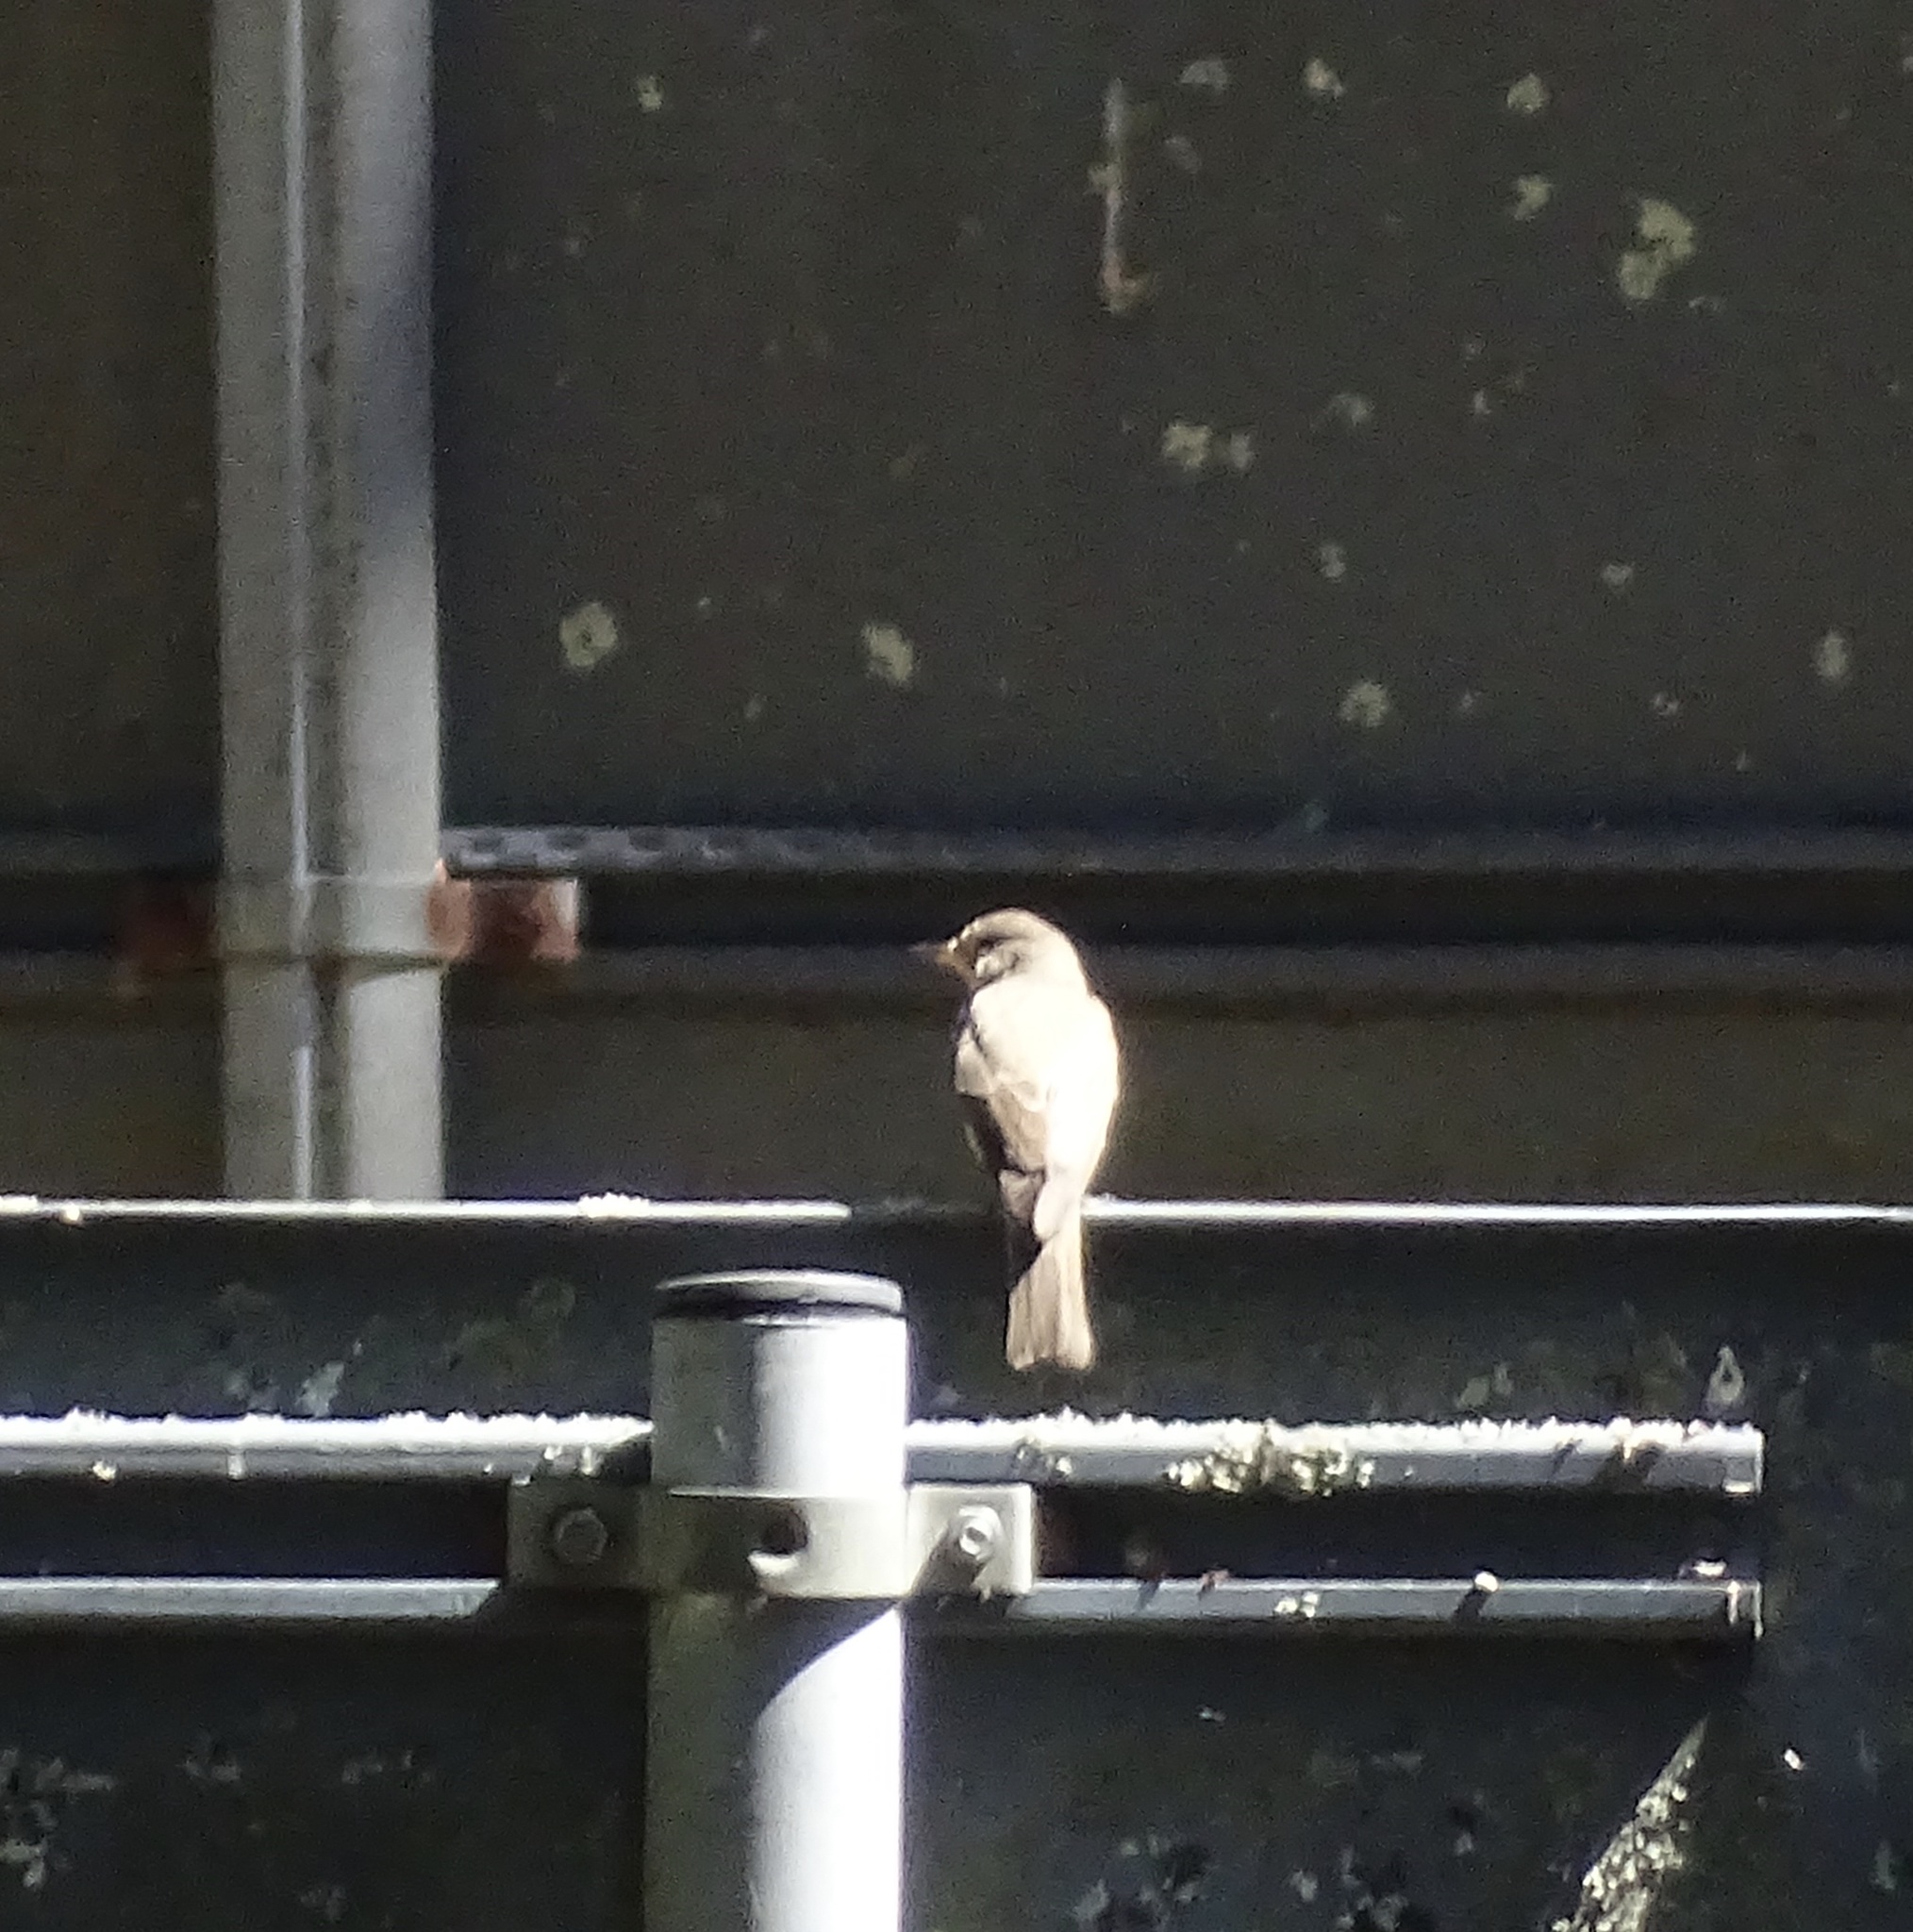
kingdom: Animalia
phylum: Chordata
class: Aves
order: Passeriformes
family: Muscicapidae
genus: Muscicapa
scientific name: Muscicapa striata
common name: Spotted flycatcher
